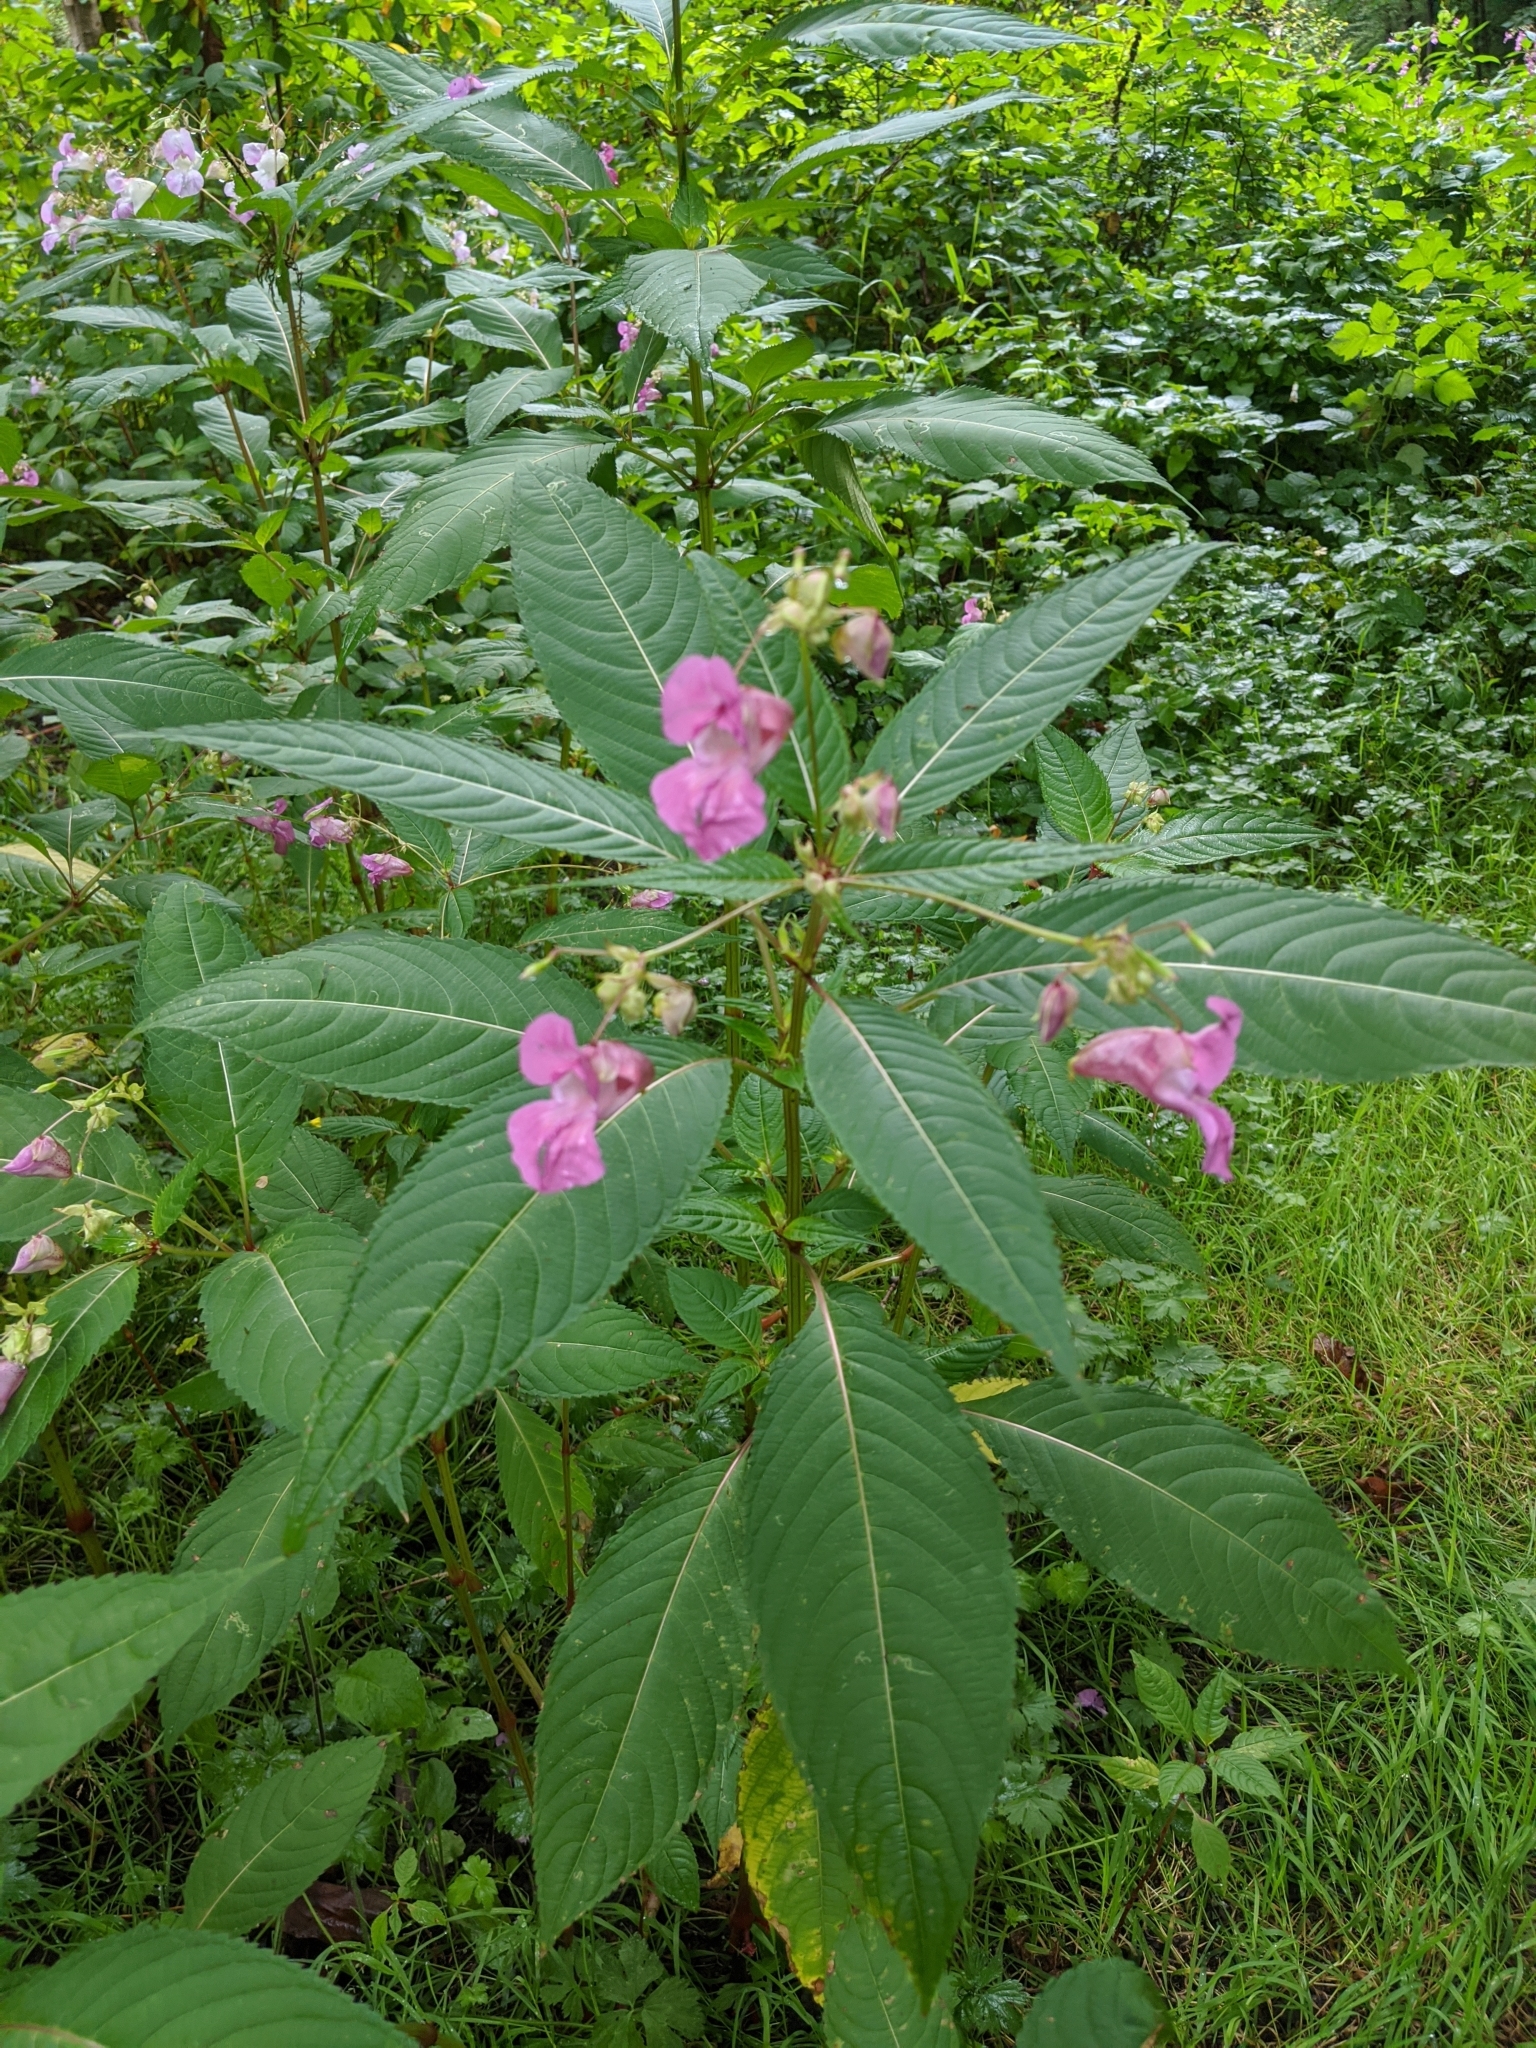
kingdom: Plantae
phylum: Tracheophyta
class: Magnoliopsida
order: Ericales
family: Balsaminaceae
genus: Impatiens
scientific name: Impatiens glandulifera
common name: Himalayan balsam
